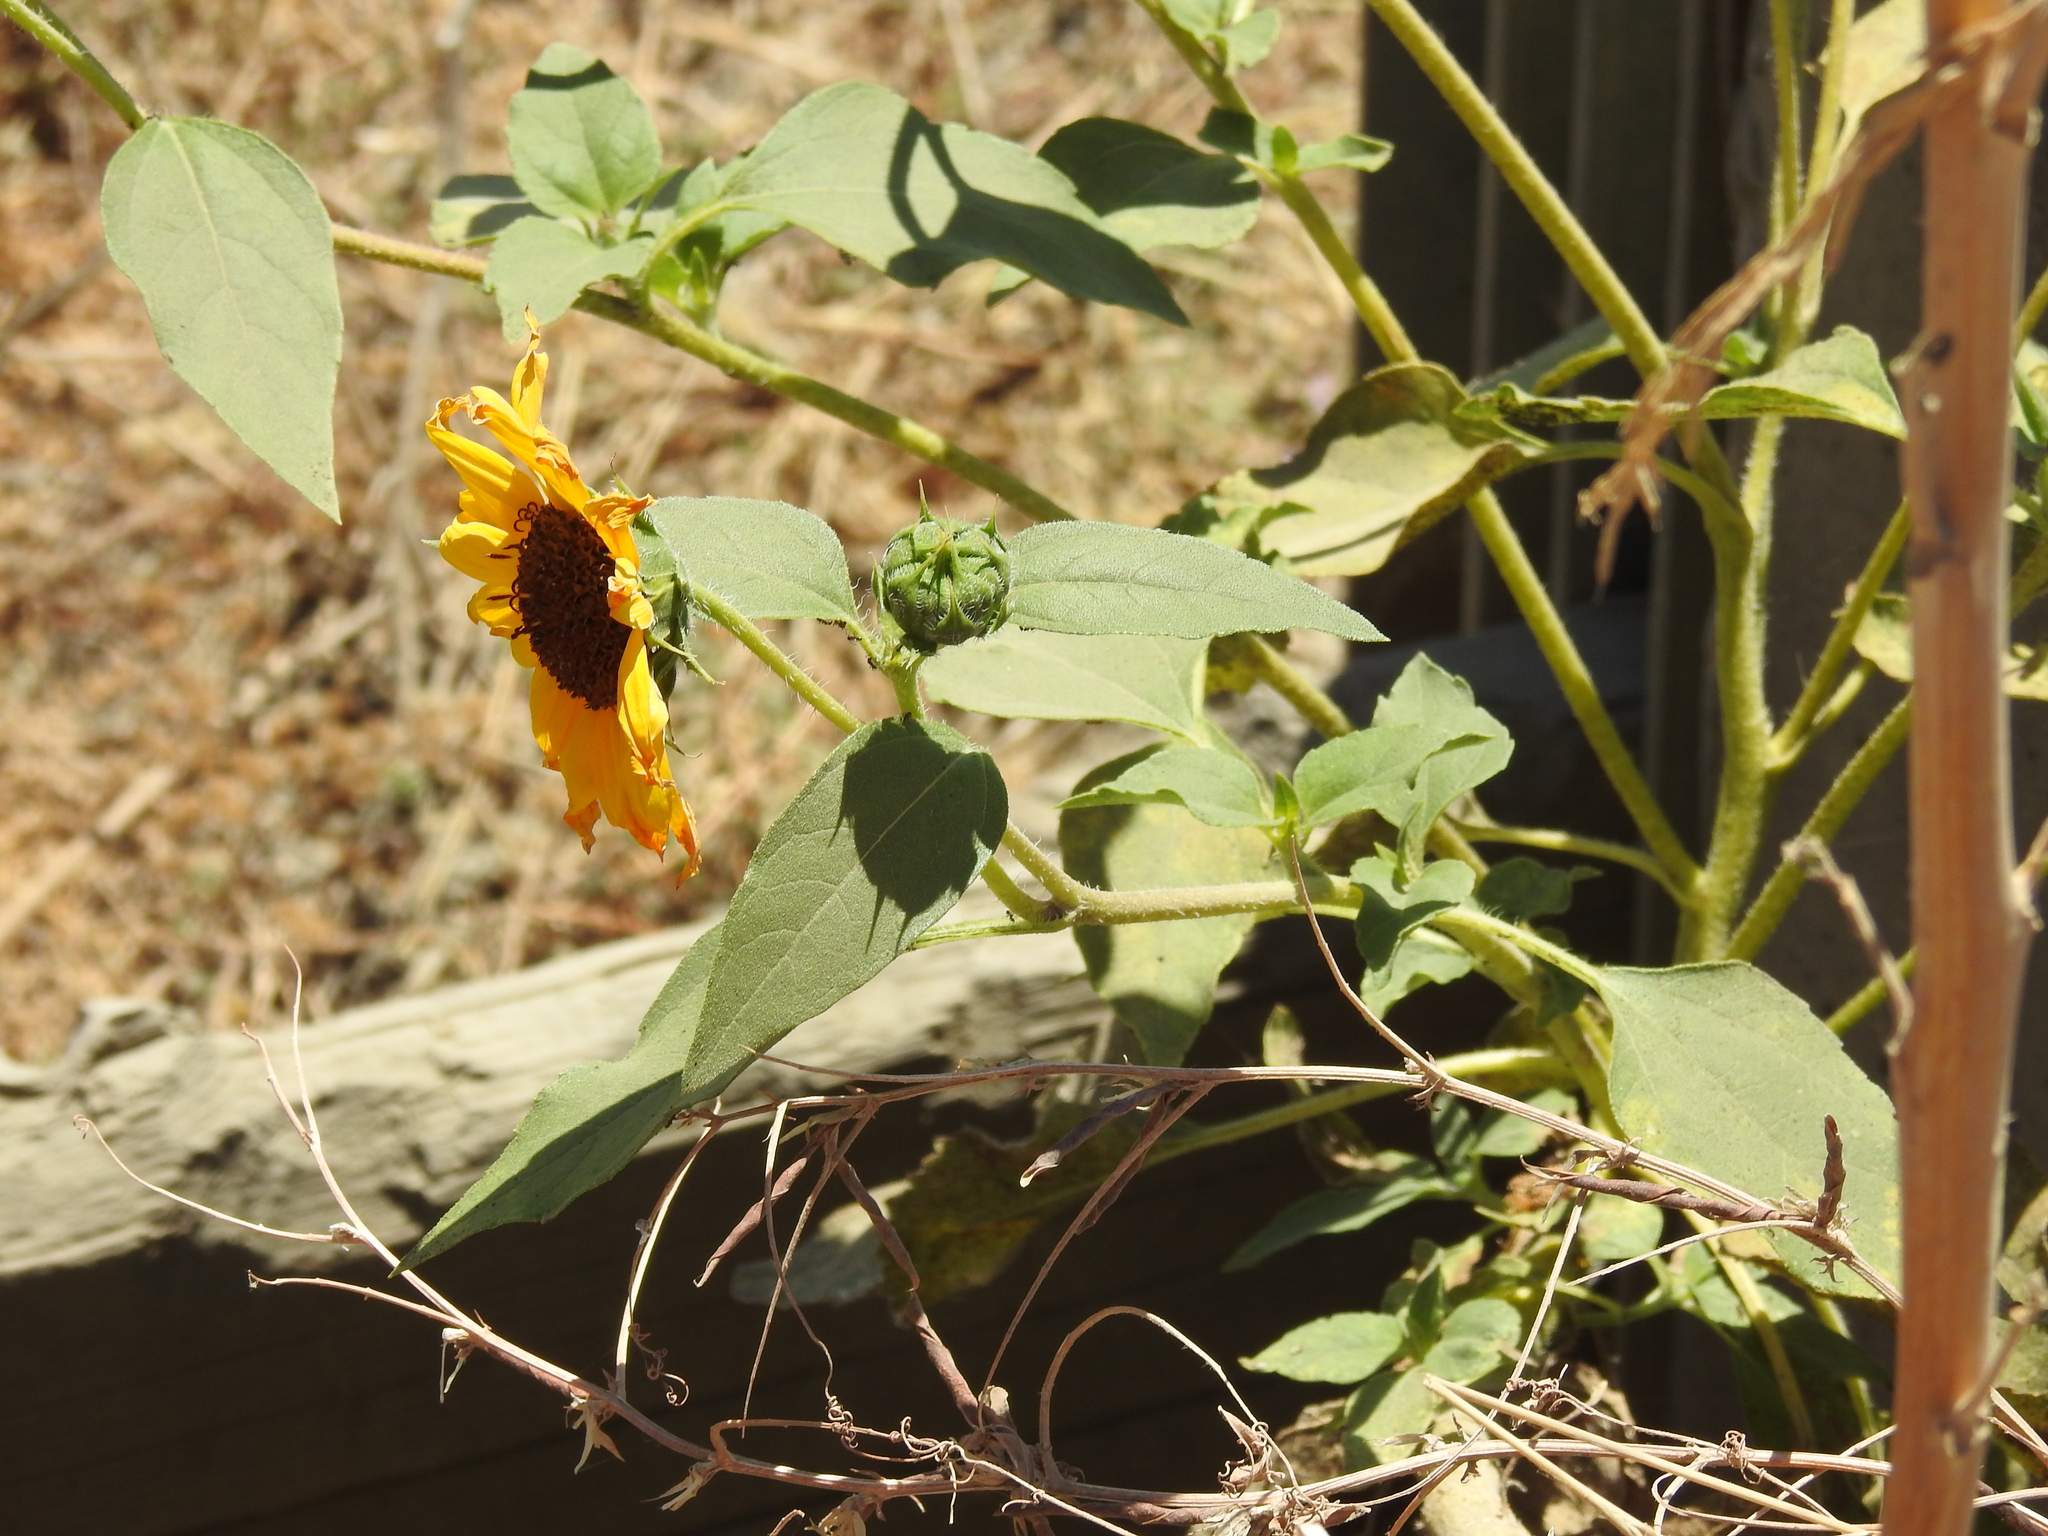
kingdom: Plantae
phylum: Tracheophyta
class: Magnoliopsida
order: Asterales
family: Asteraceae
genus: Helianthus
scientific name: Helianthus annuus
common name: Sunflower
